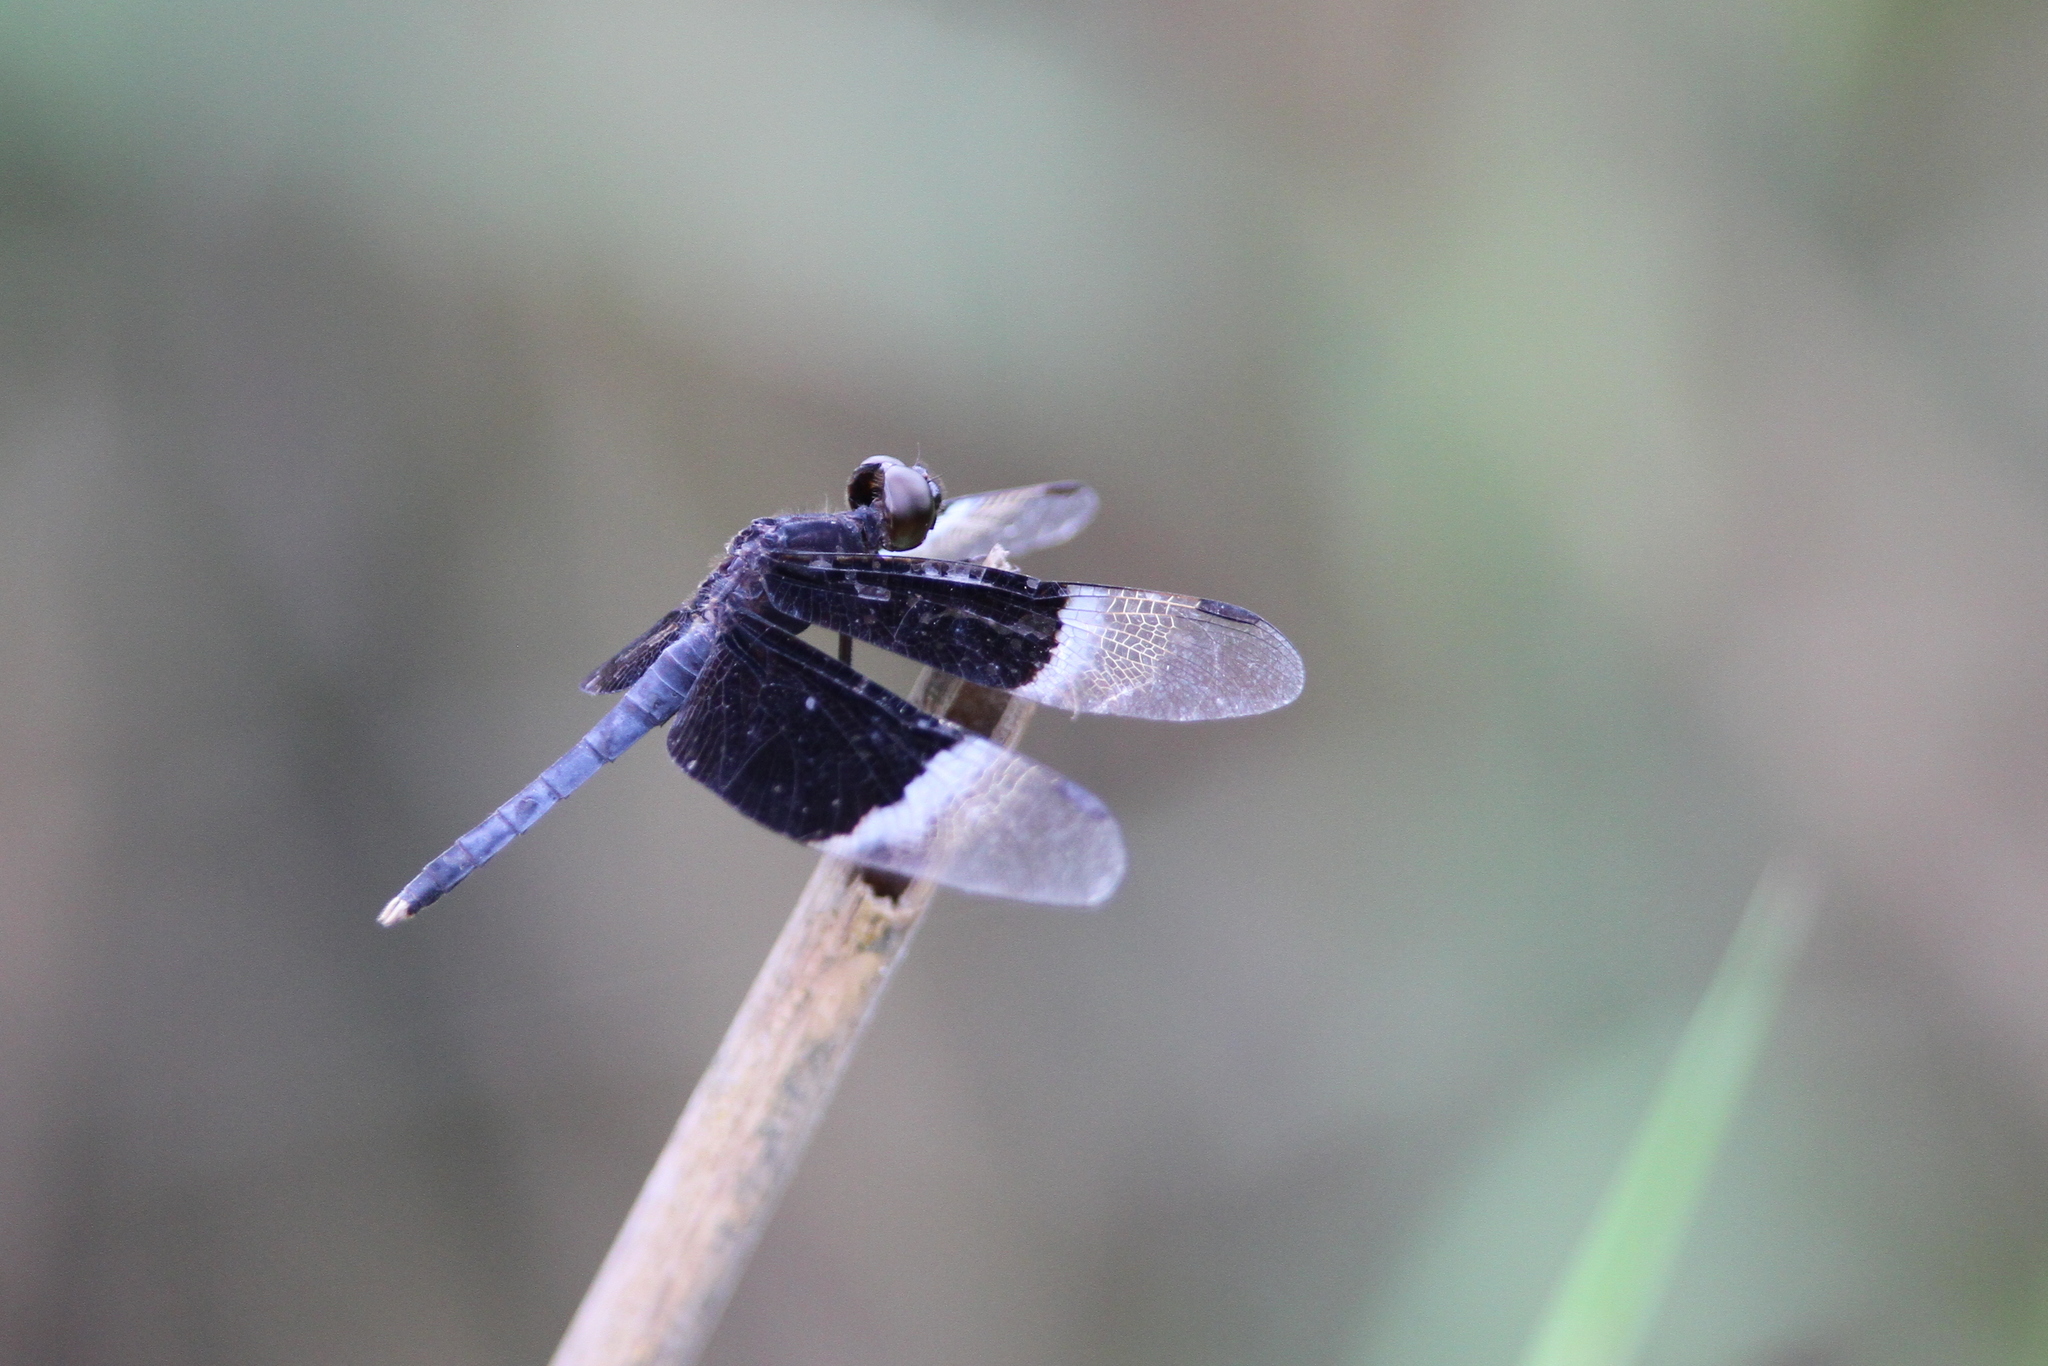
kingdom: Animalia
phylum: Arthropoda
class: Insecta
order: Odonata
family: Libellulidae
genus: Neurothemis
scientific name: Neurothemis tullia
